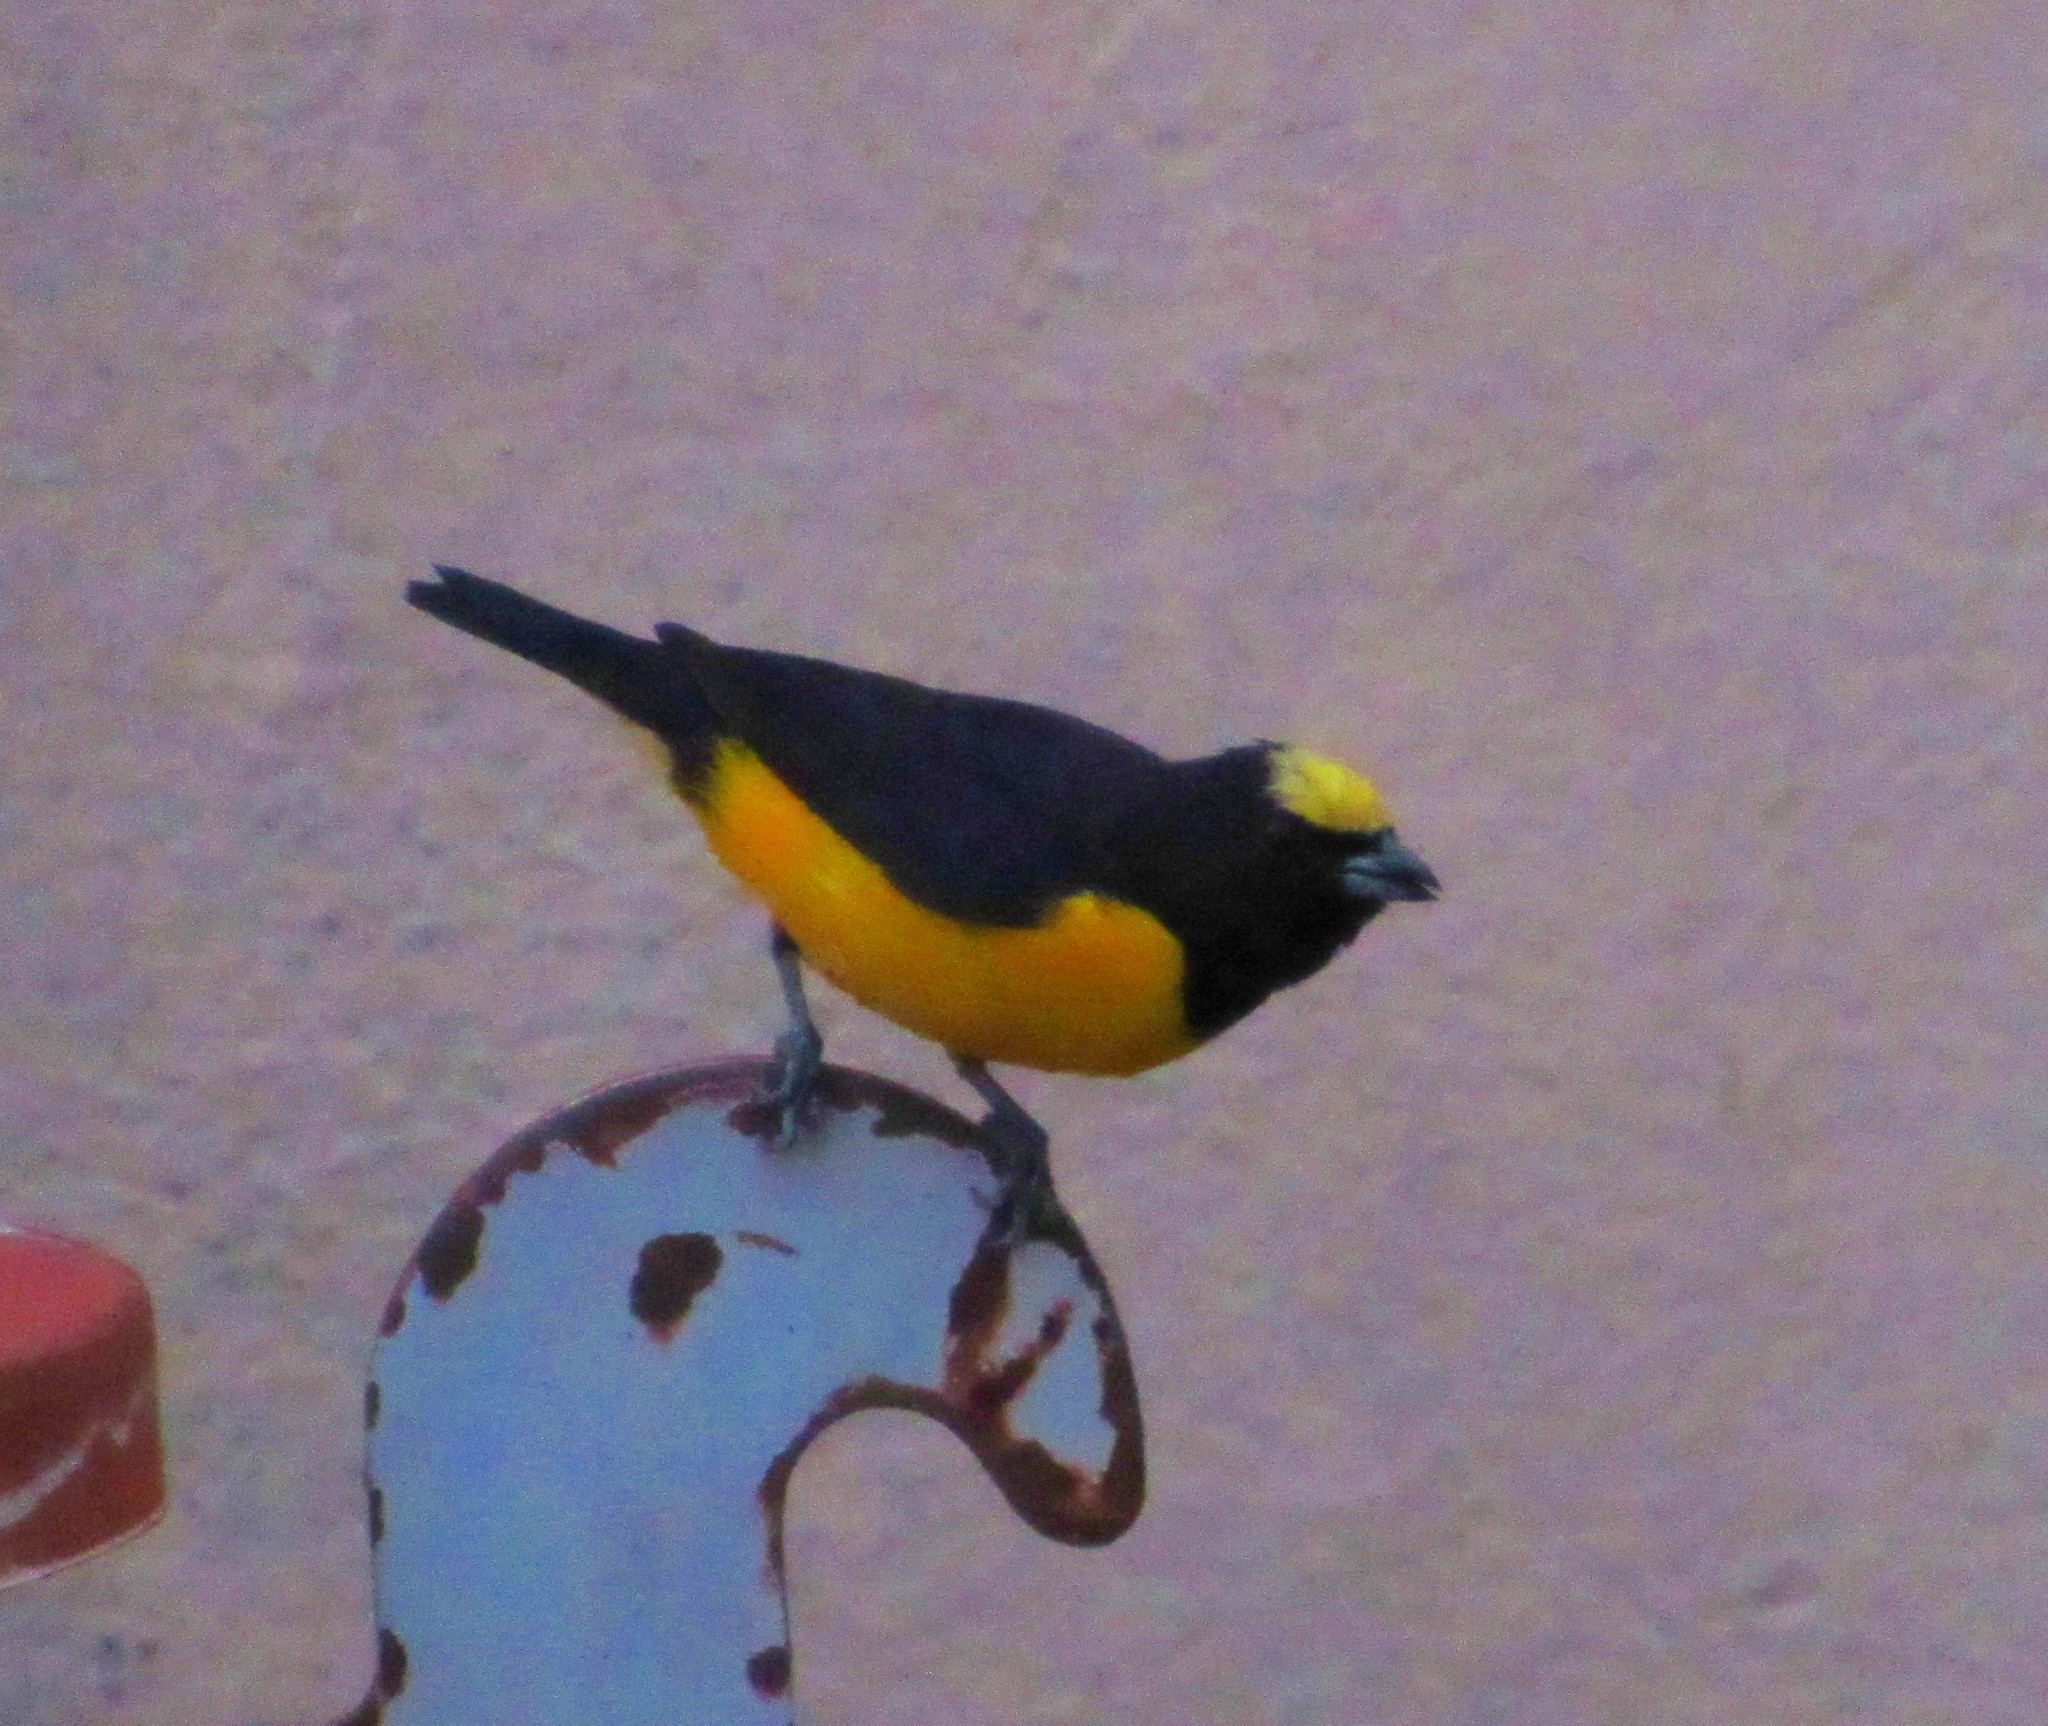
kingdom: Animalia
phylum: Chordata
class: Aves
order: Passeriformes
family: Fringillidae
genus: Euphonia
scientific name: Euphonia chlorotica
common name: Purple-throated euphonia
